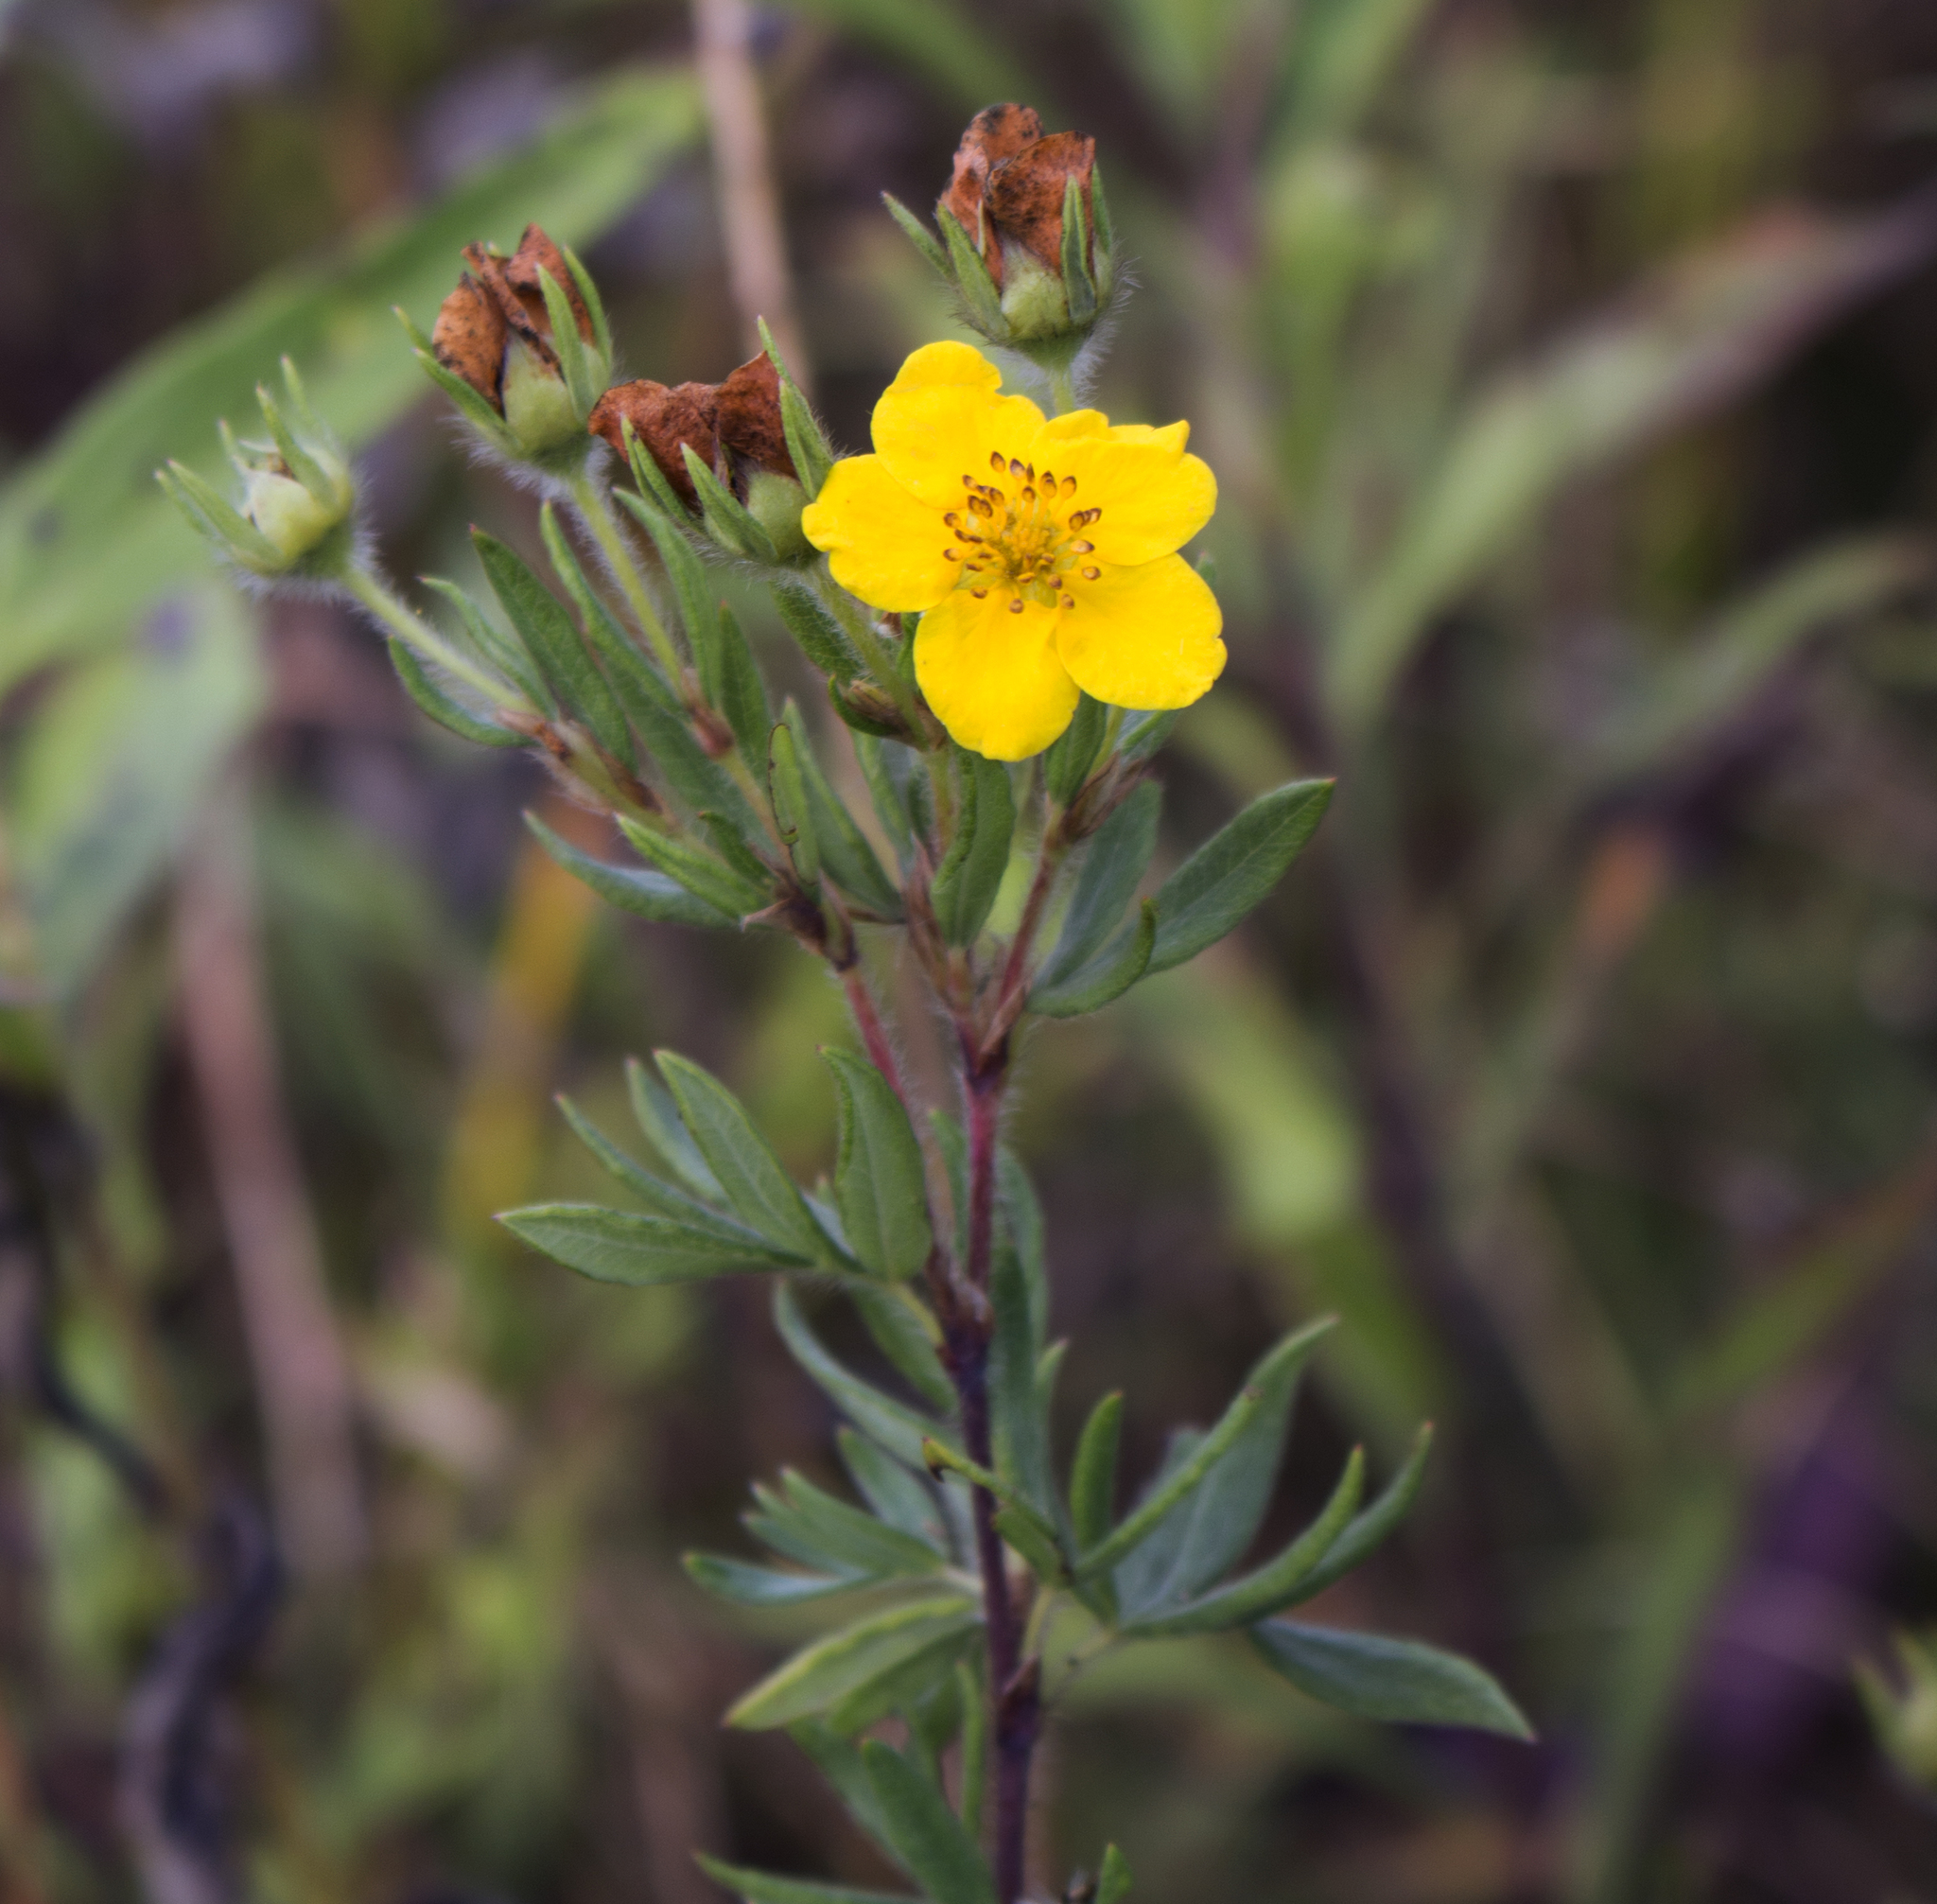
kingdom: Plantae
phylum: Tracheophyta
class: Magnoliopsida
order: Rosales
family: Rosaceae
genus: Dasiphora
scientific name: Dasiphora fruticosa
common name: Shrubby cinquefoil
